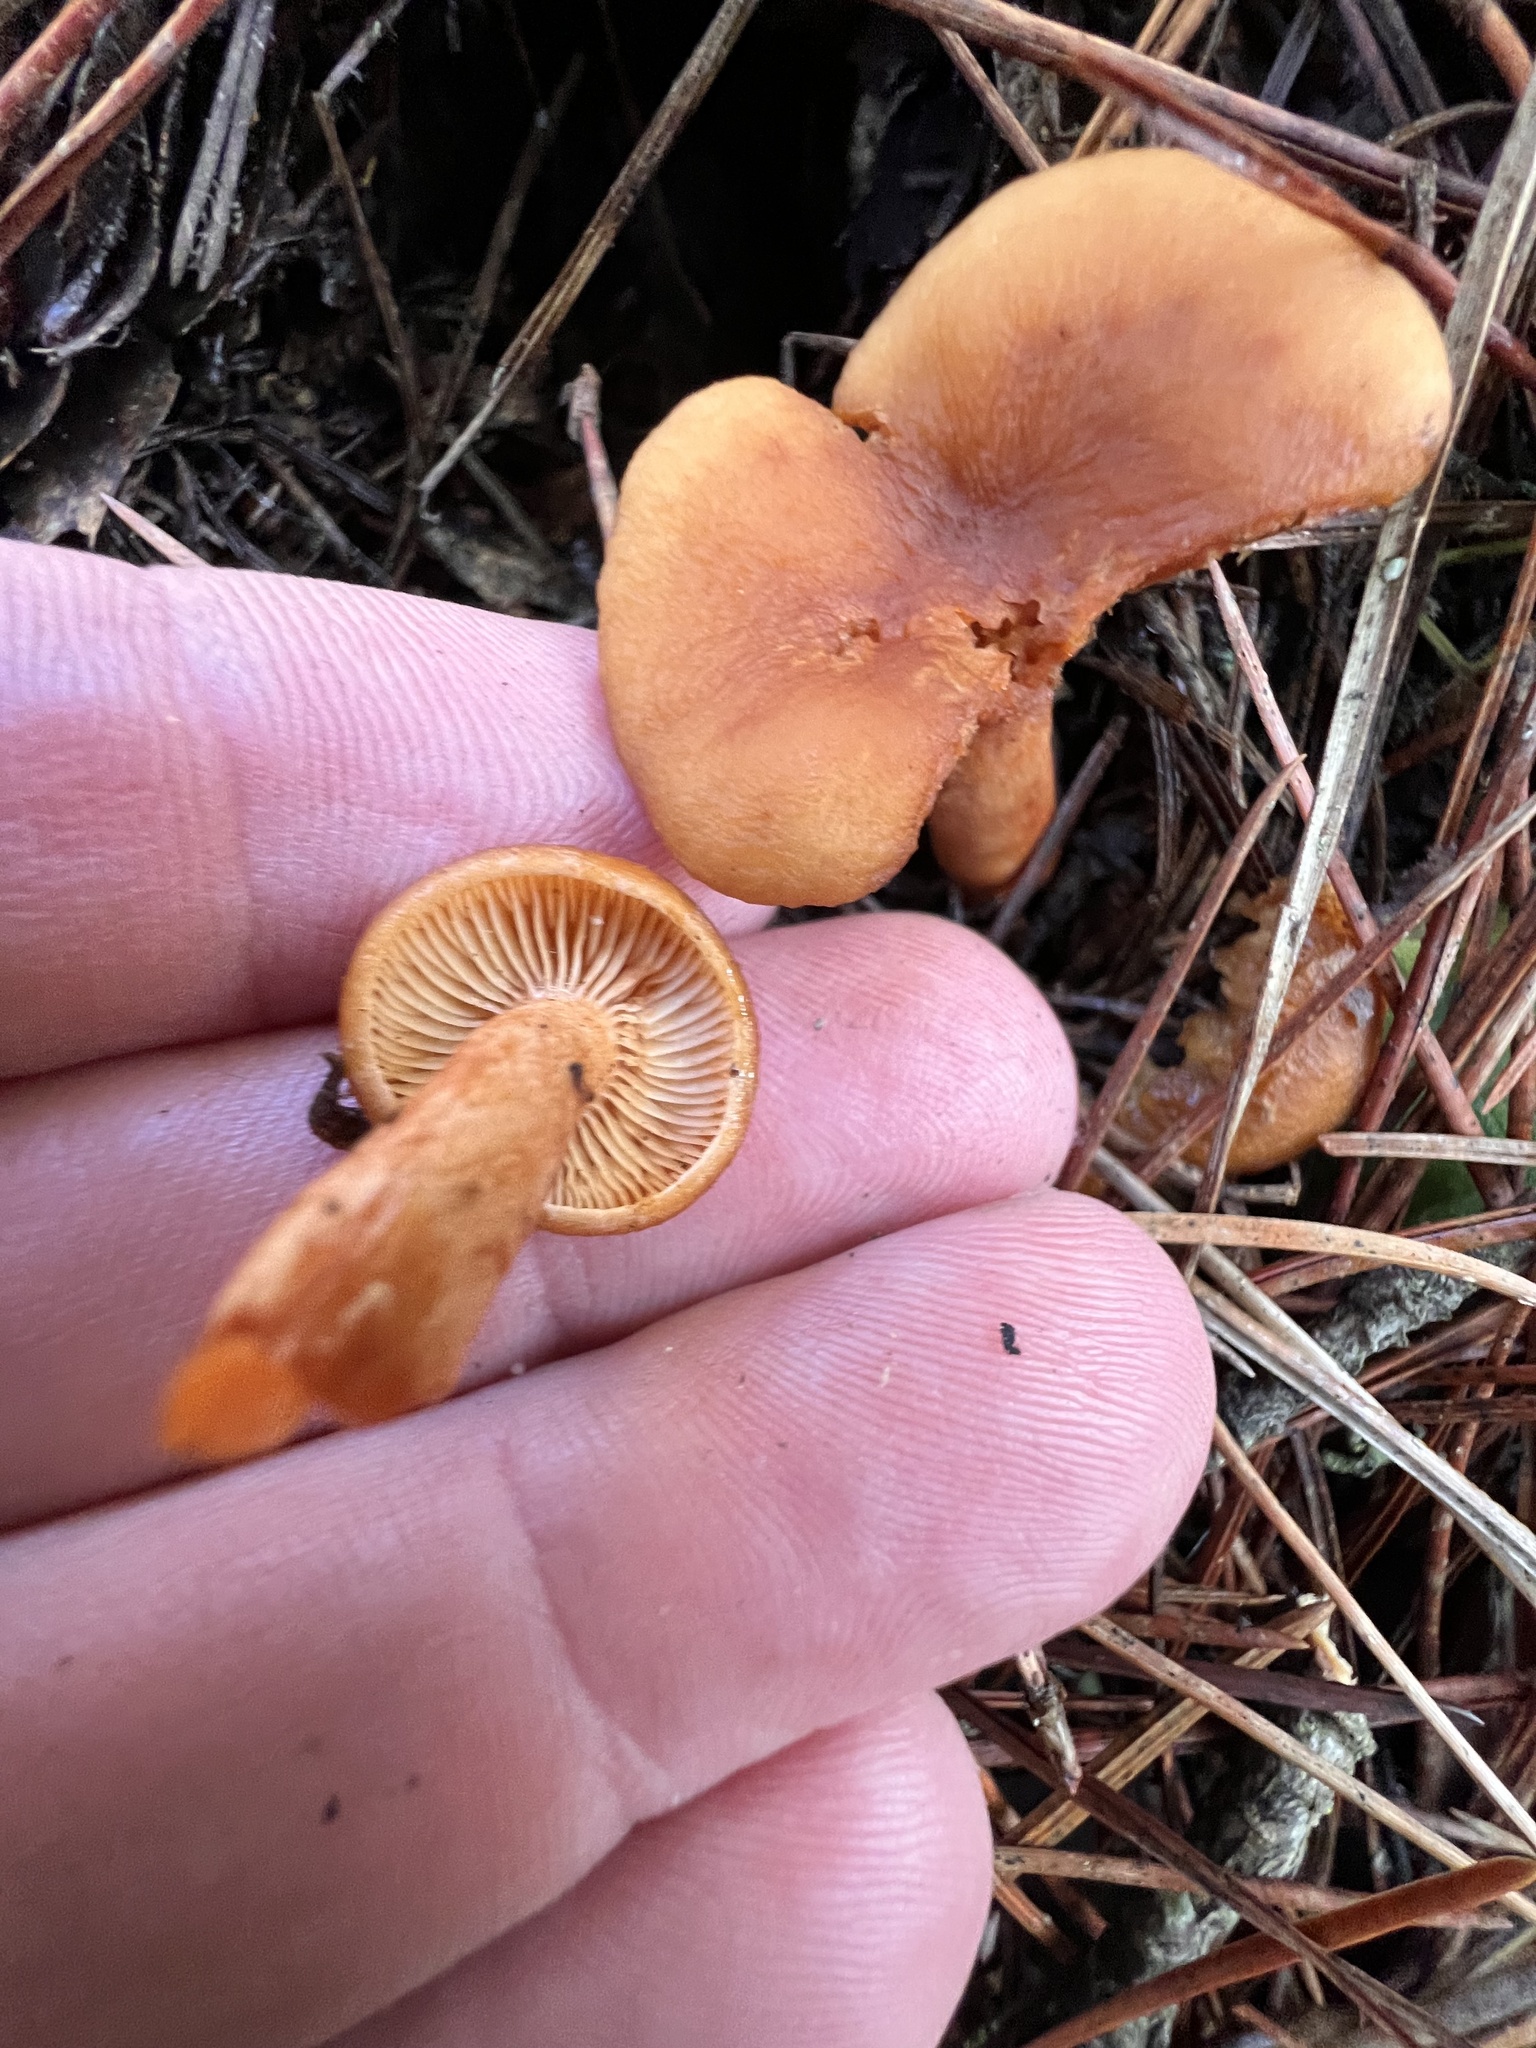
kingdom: Fungi
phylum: Basidiomycota
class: Agaricomycetes
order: Russulales
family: Russulaceae
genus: Lactarius
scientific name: Lactarius rubidus
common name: Candy cap
